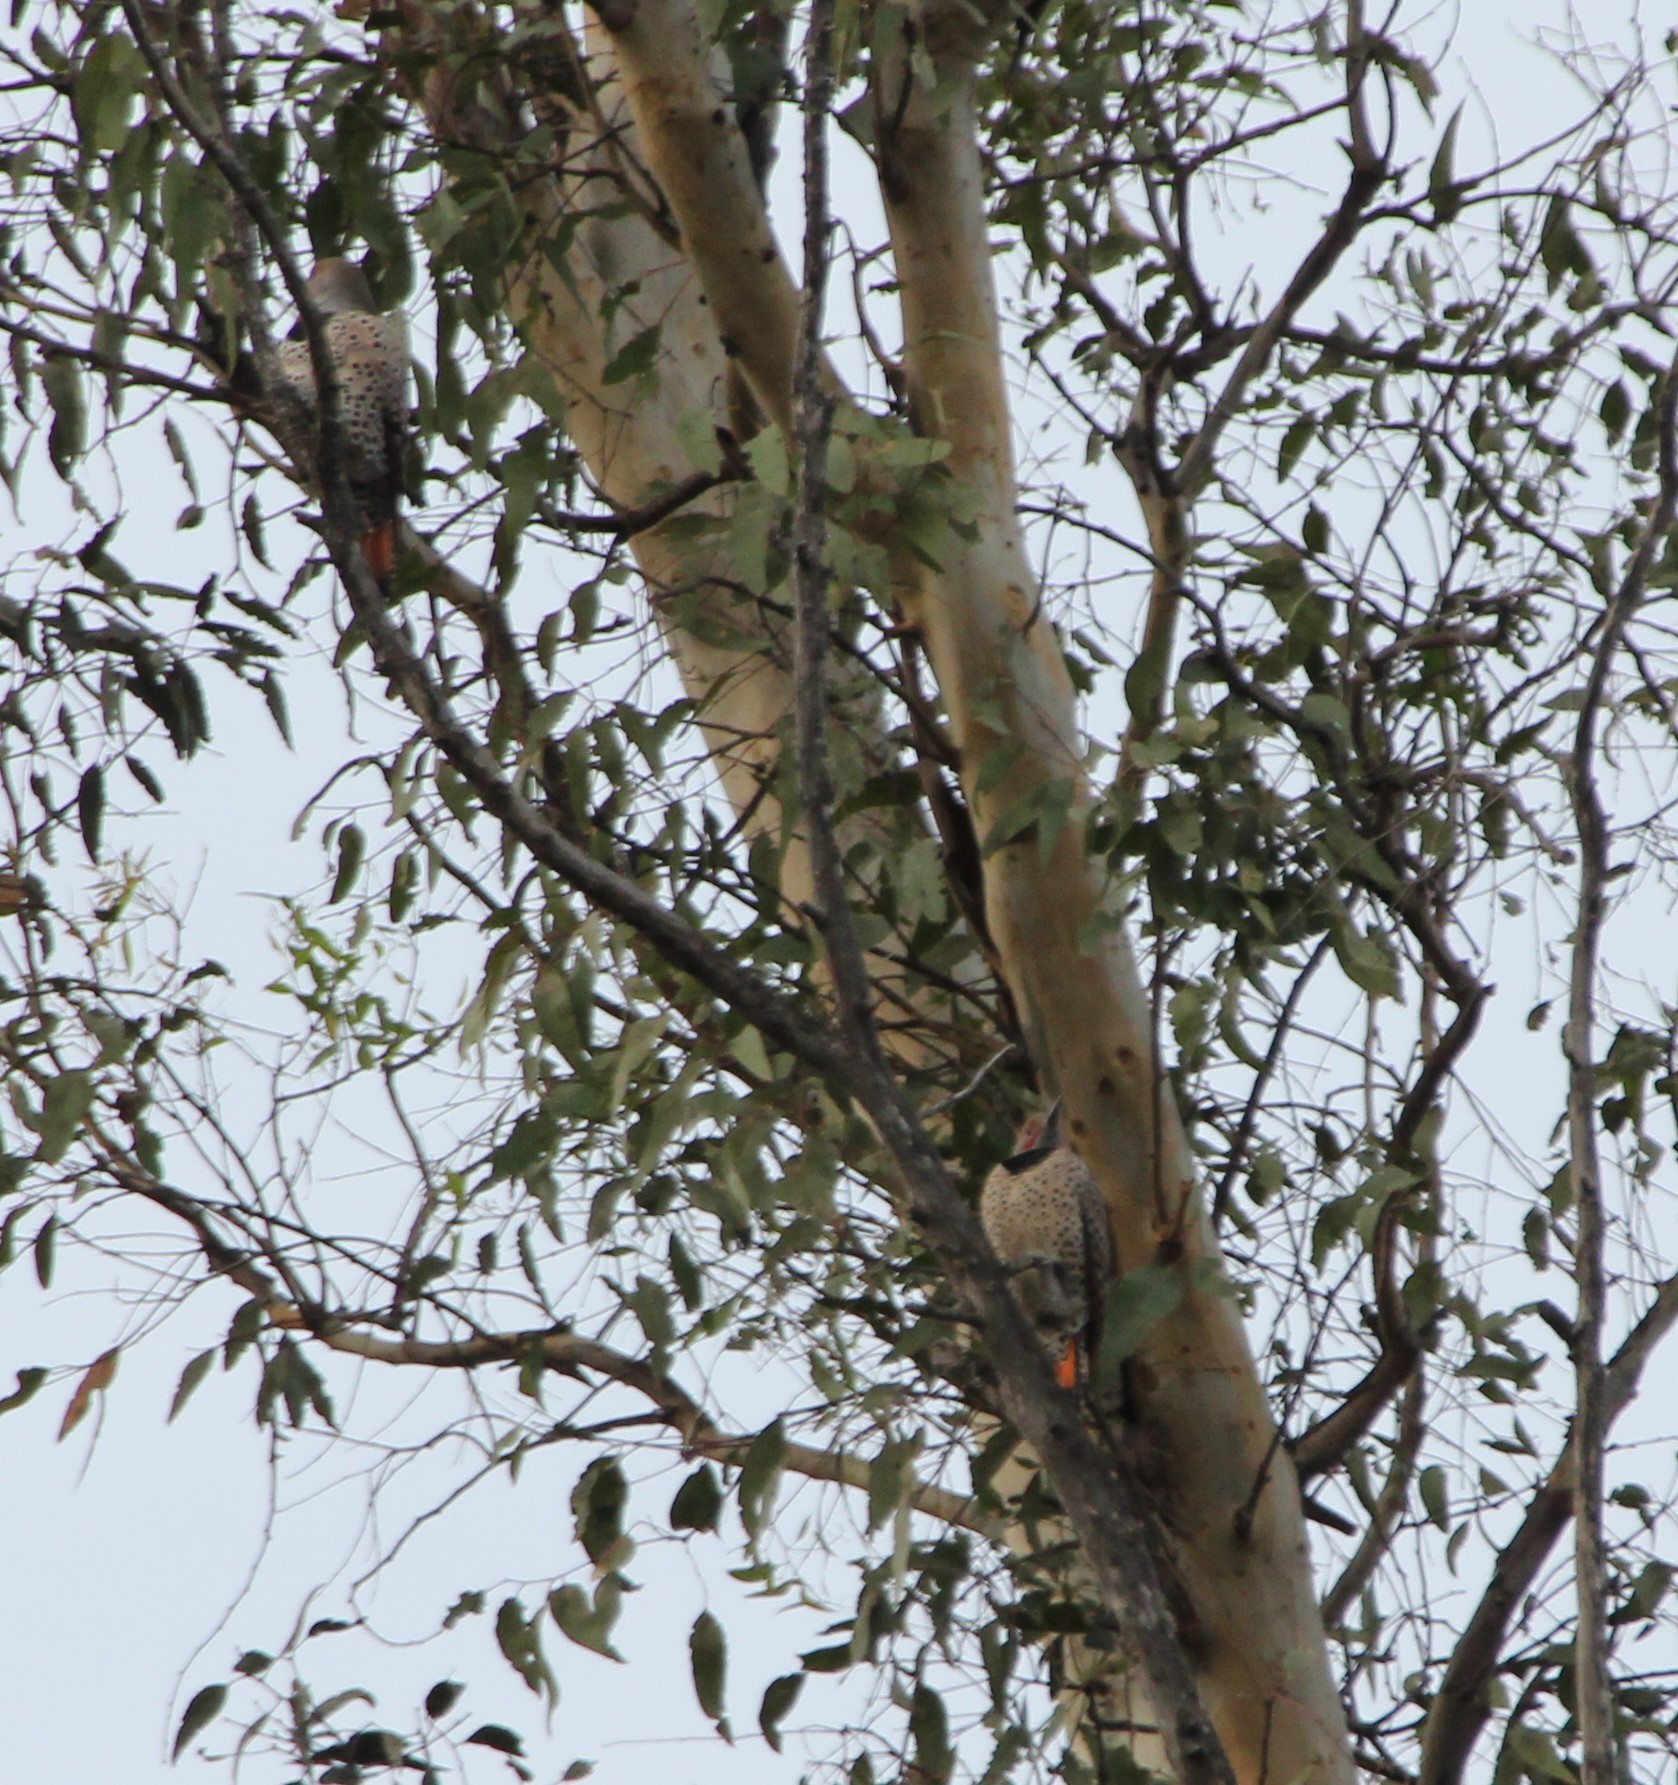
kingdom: Animalia
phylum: Chordata
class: Aves
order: Piciformes
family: Picidae
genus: Colaptes
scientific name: Colaptes auratus
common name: Northern flicker
